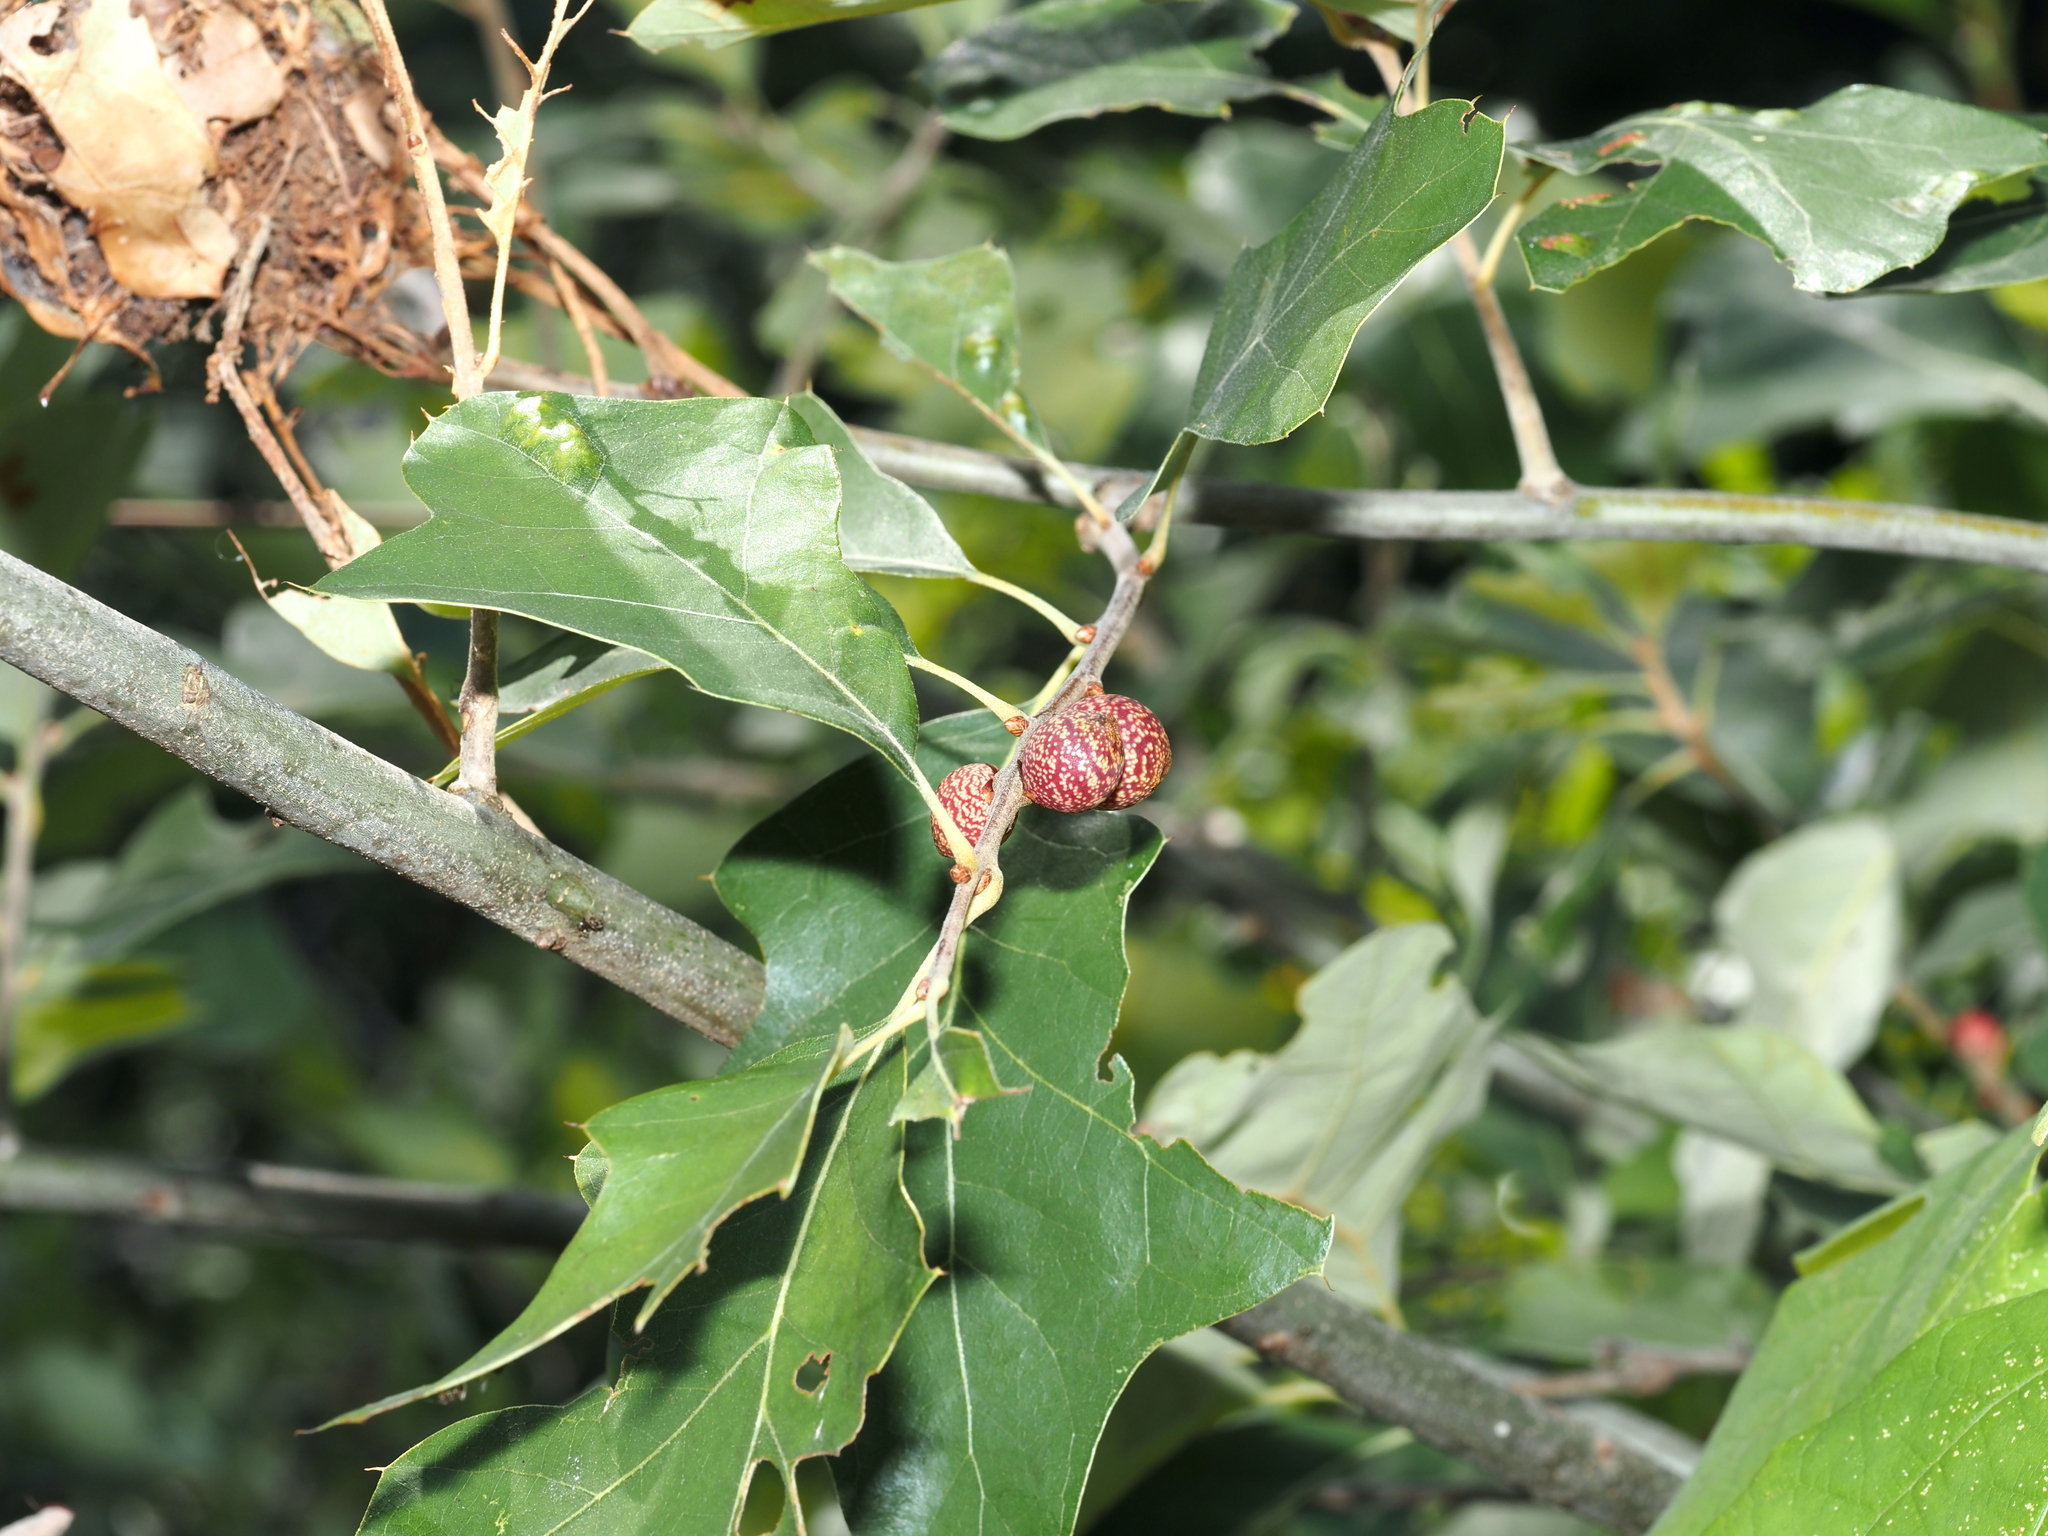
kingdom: Animalia
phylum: Arthropoda
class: Insecta
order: Hymenoptera
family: Cynipidae
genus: Kokkocynips
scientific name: Kokkocynips imbricariae
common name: Banded bullet gall wasp
